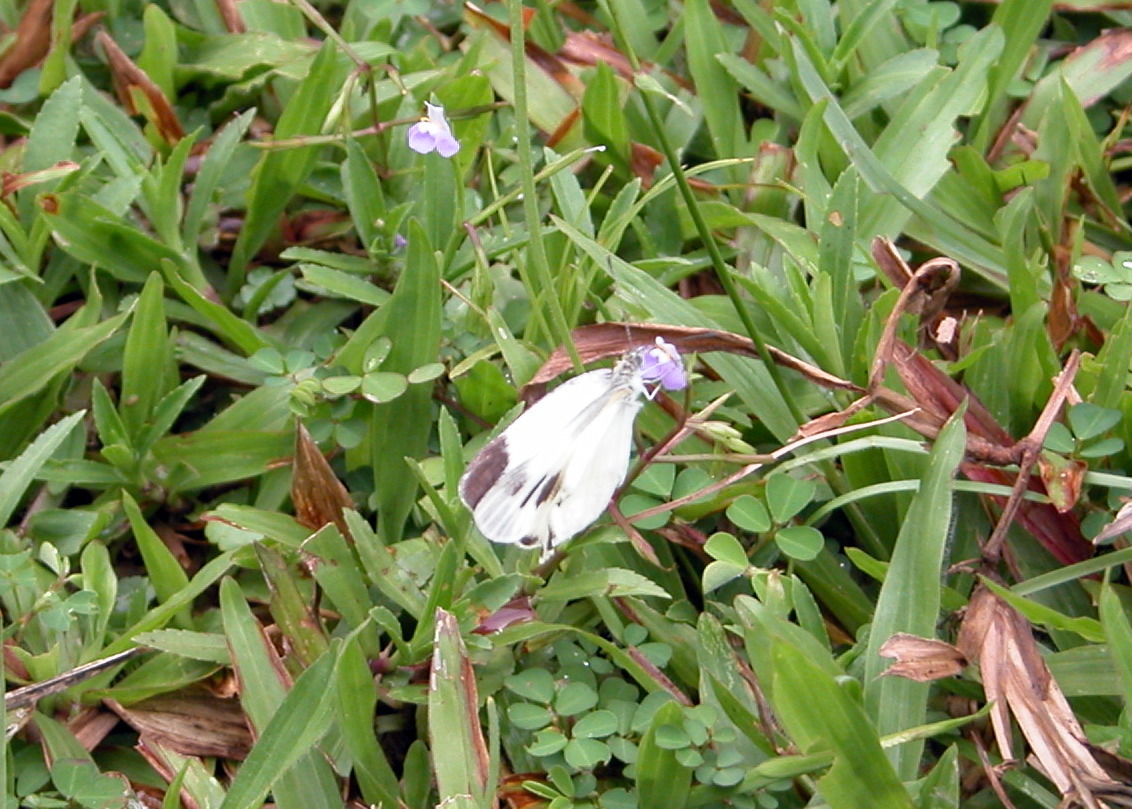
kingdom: Animalia
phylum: Arthropoda
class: Insecta
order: Lepidoptera
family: Pieridae
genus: Pieris
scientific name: Pieris canidia
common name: Indian cabbage white
